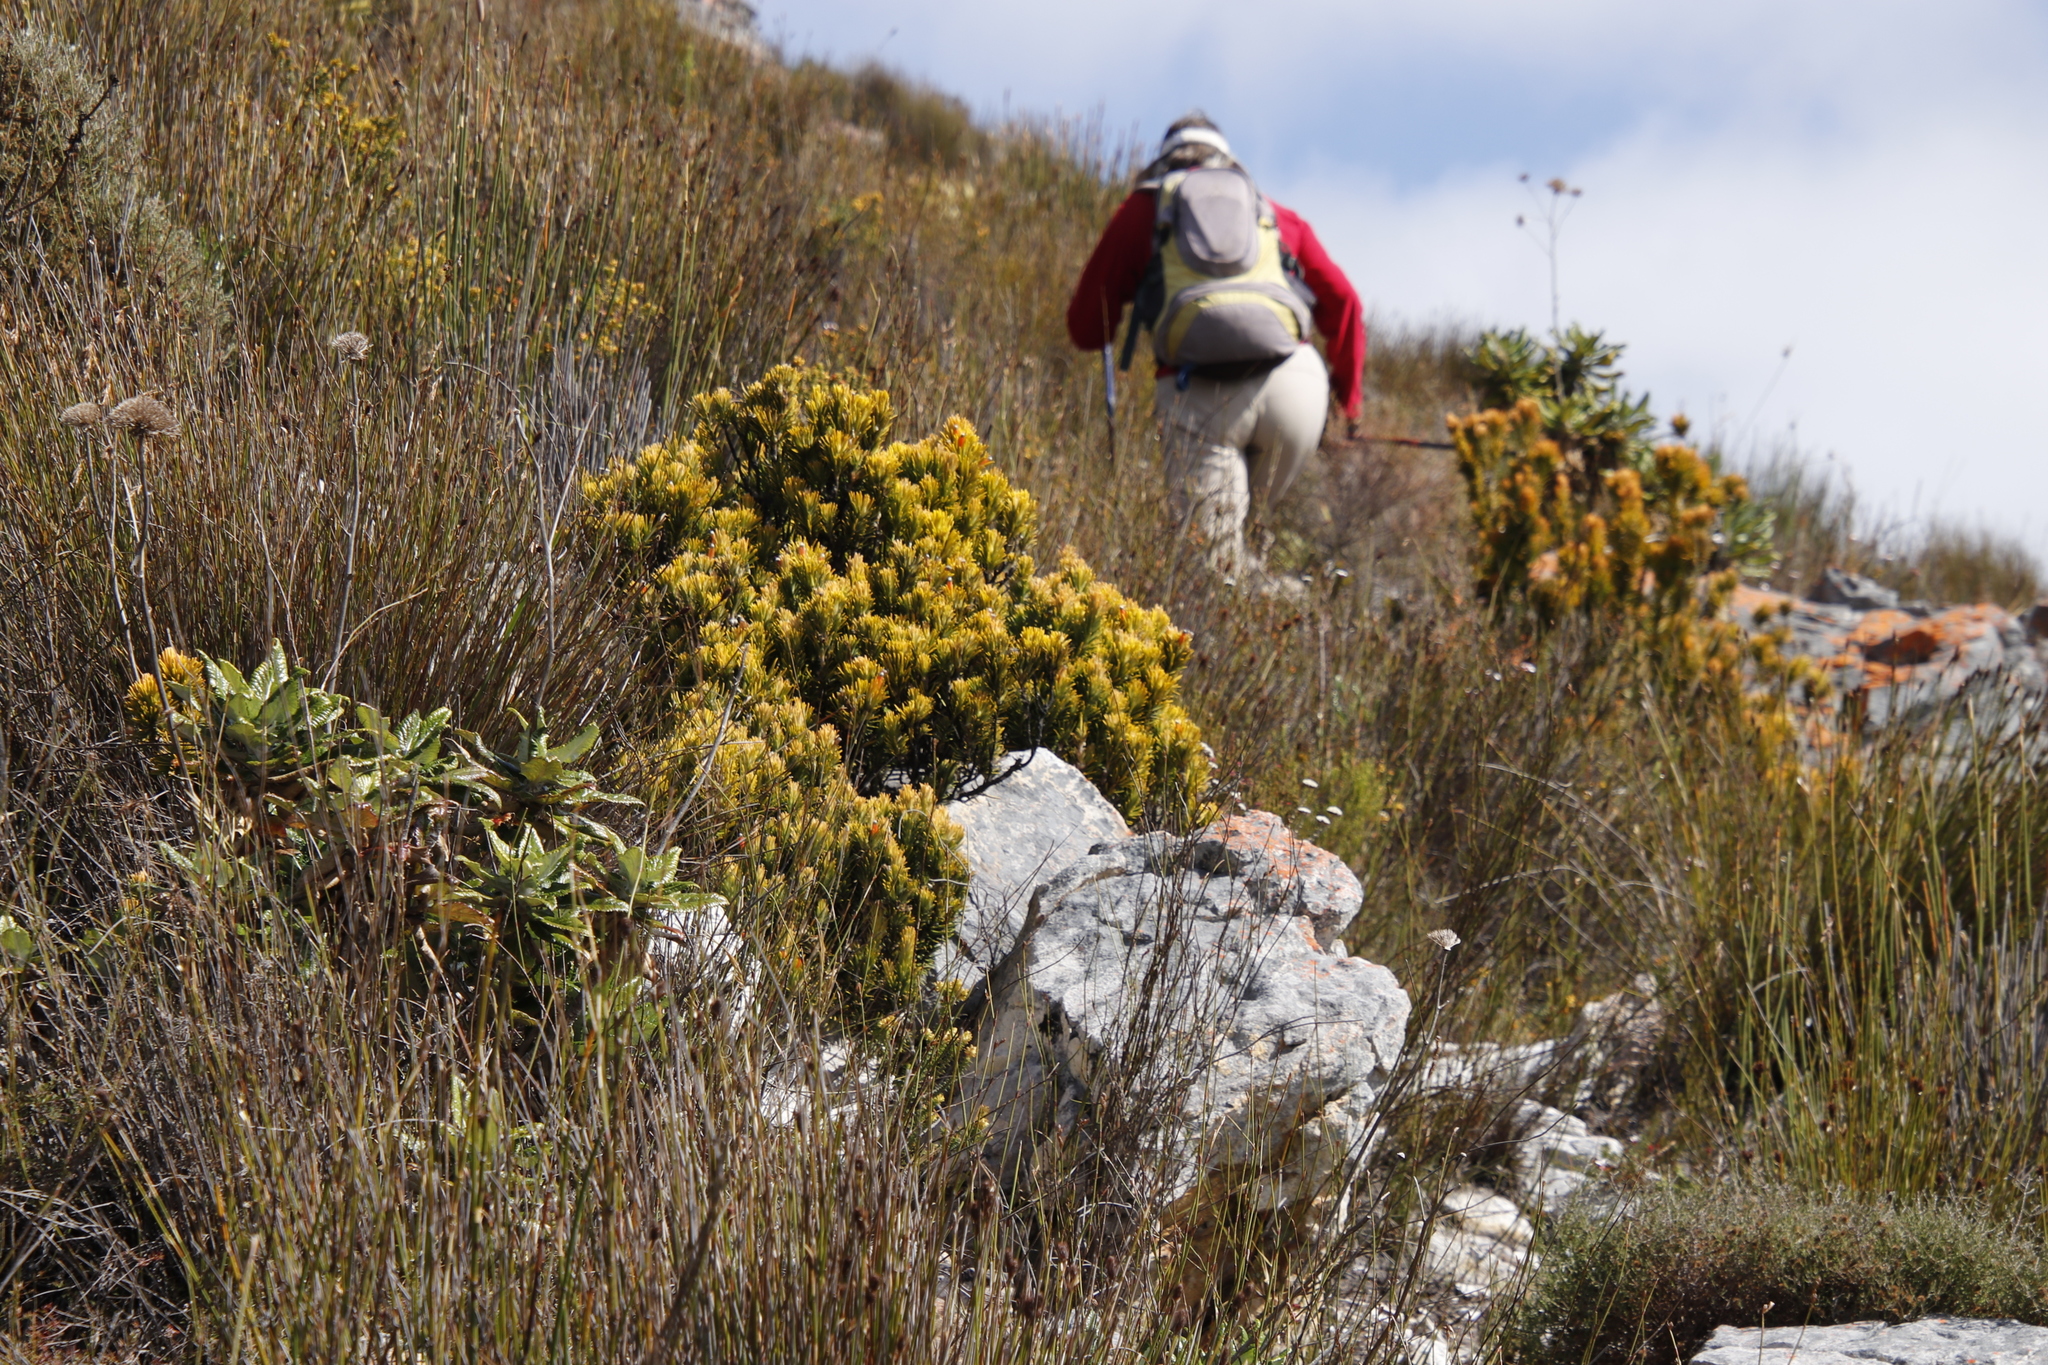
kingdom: Plantae
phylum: Tracheophyta
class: Magnoliopsida
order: Lamiales
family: Stilbaceae
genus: Retzia
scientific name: Retzia capensis
